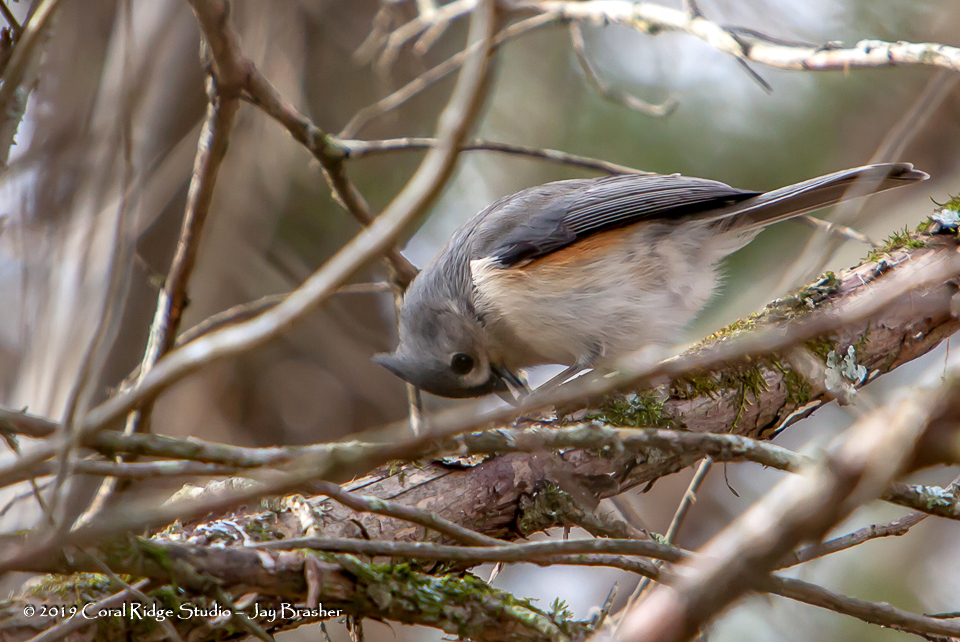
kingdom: Animalia
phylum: Chordata
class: Aves
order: Passeriformes
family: Paridae
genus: Baeolophus
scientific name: Baeolophus bicolor
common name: Tufted titmouse
